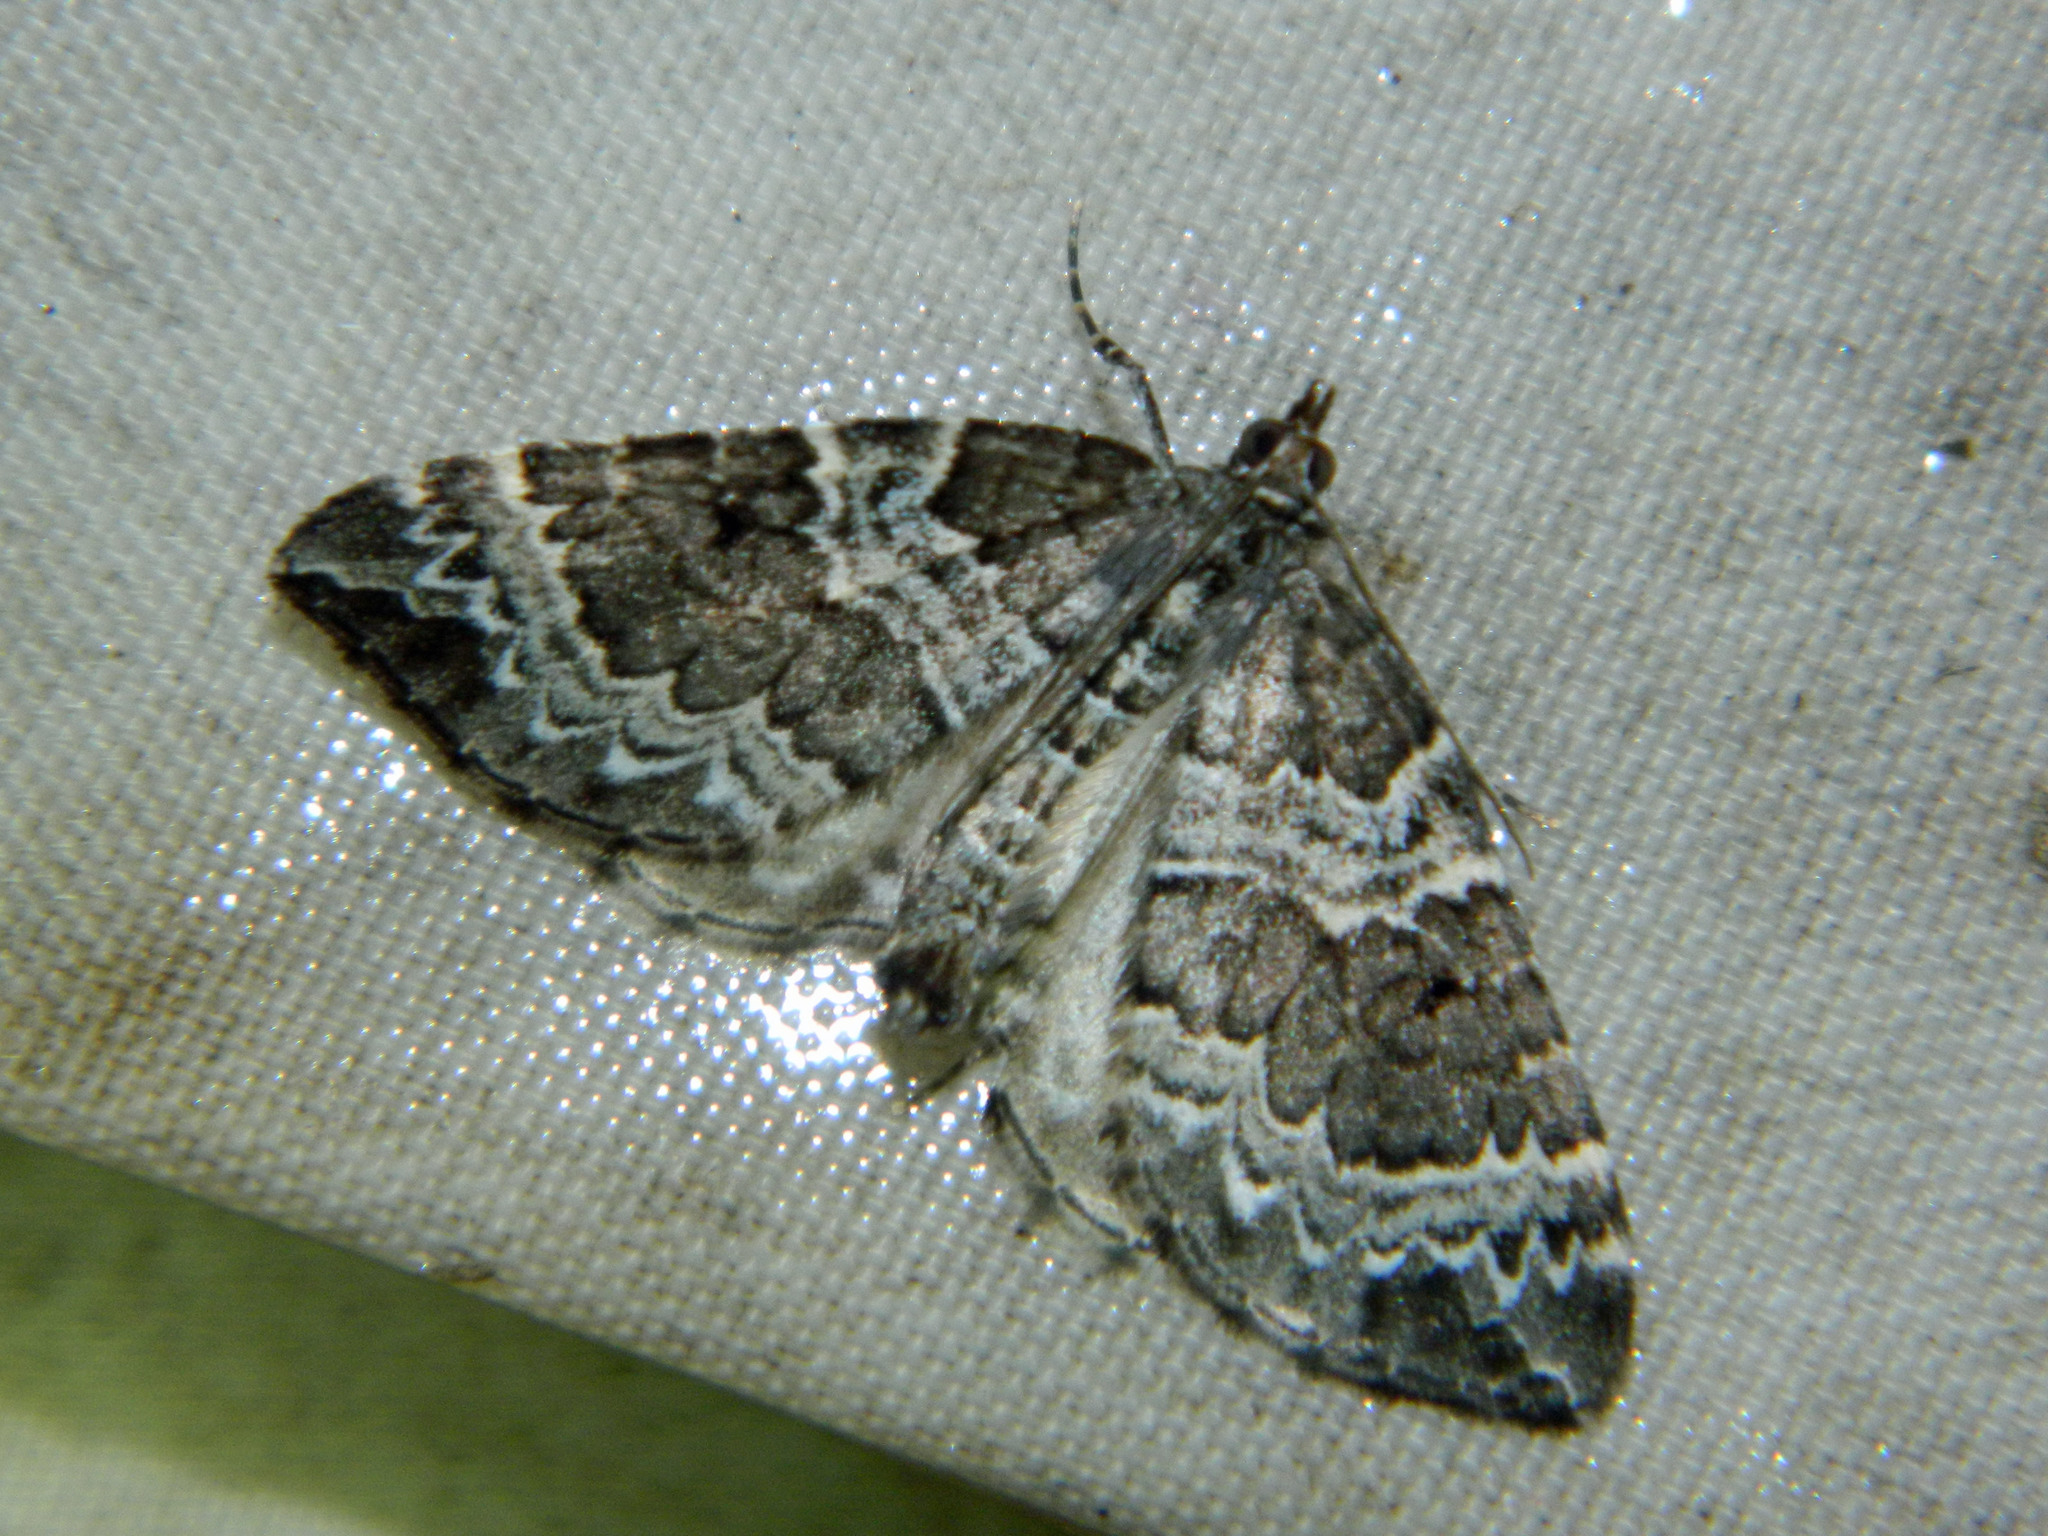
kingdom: Animalia
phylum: Arthropoda
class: Insecta
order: Lepidoptera
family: Geometridae
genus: Eulithis
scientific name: Eulithis explanata
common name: White eulithis
